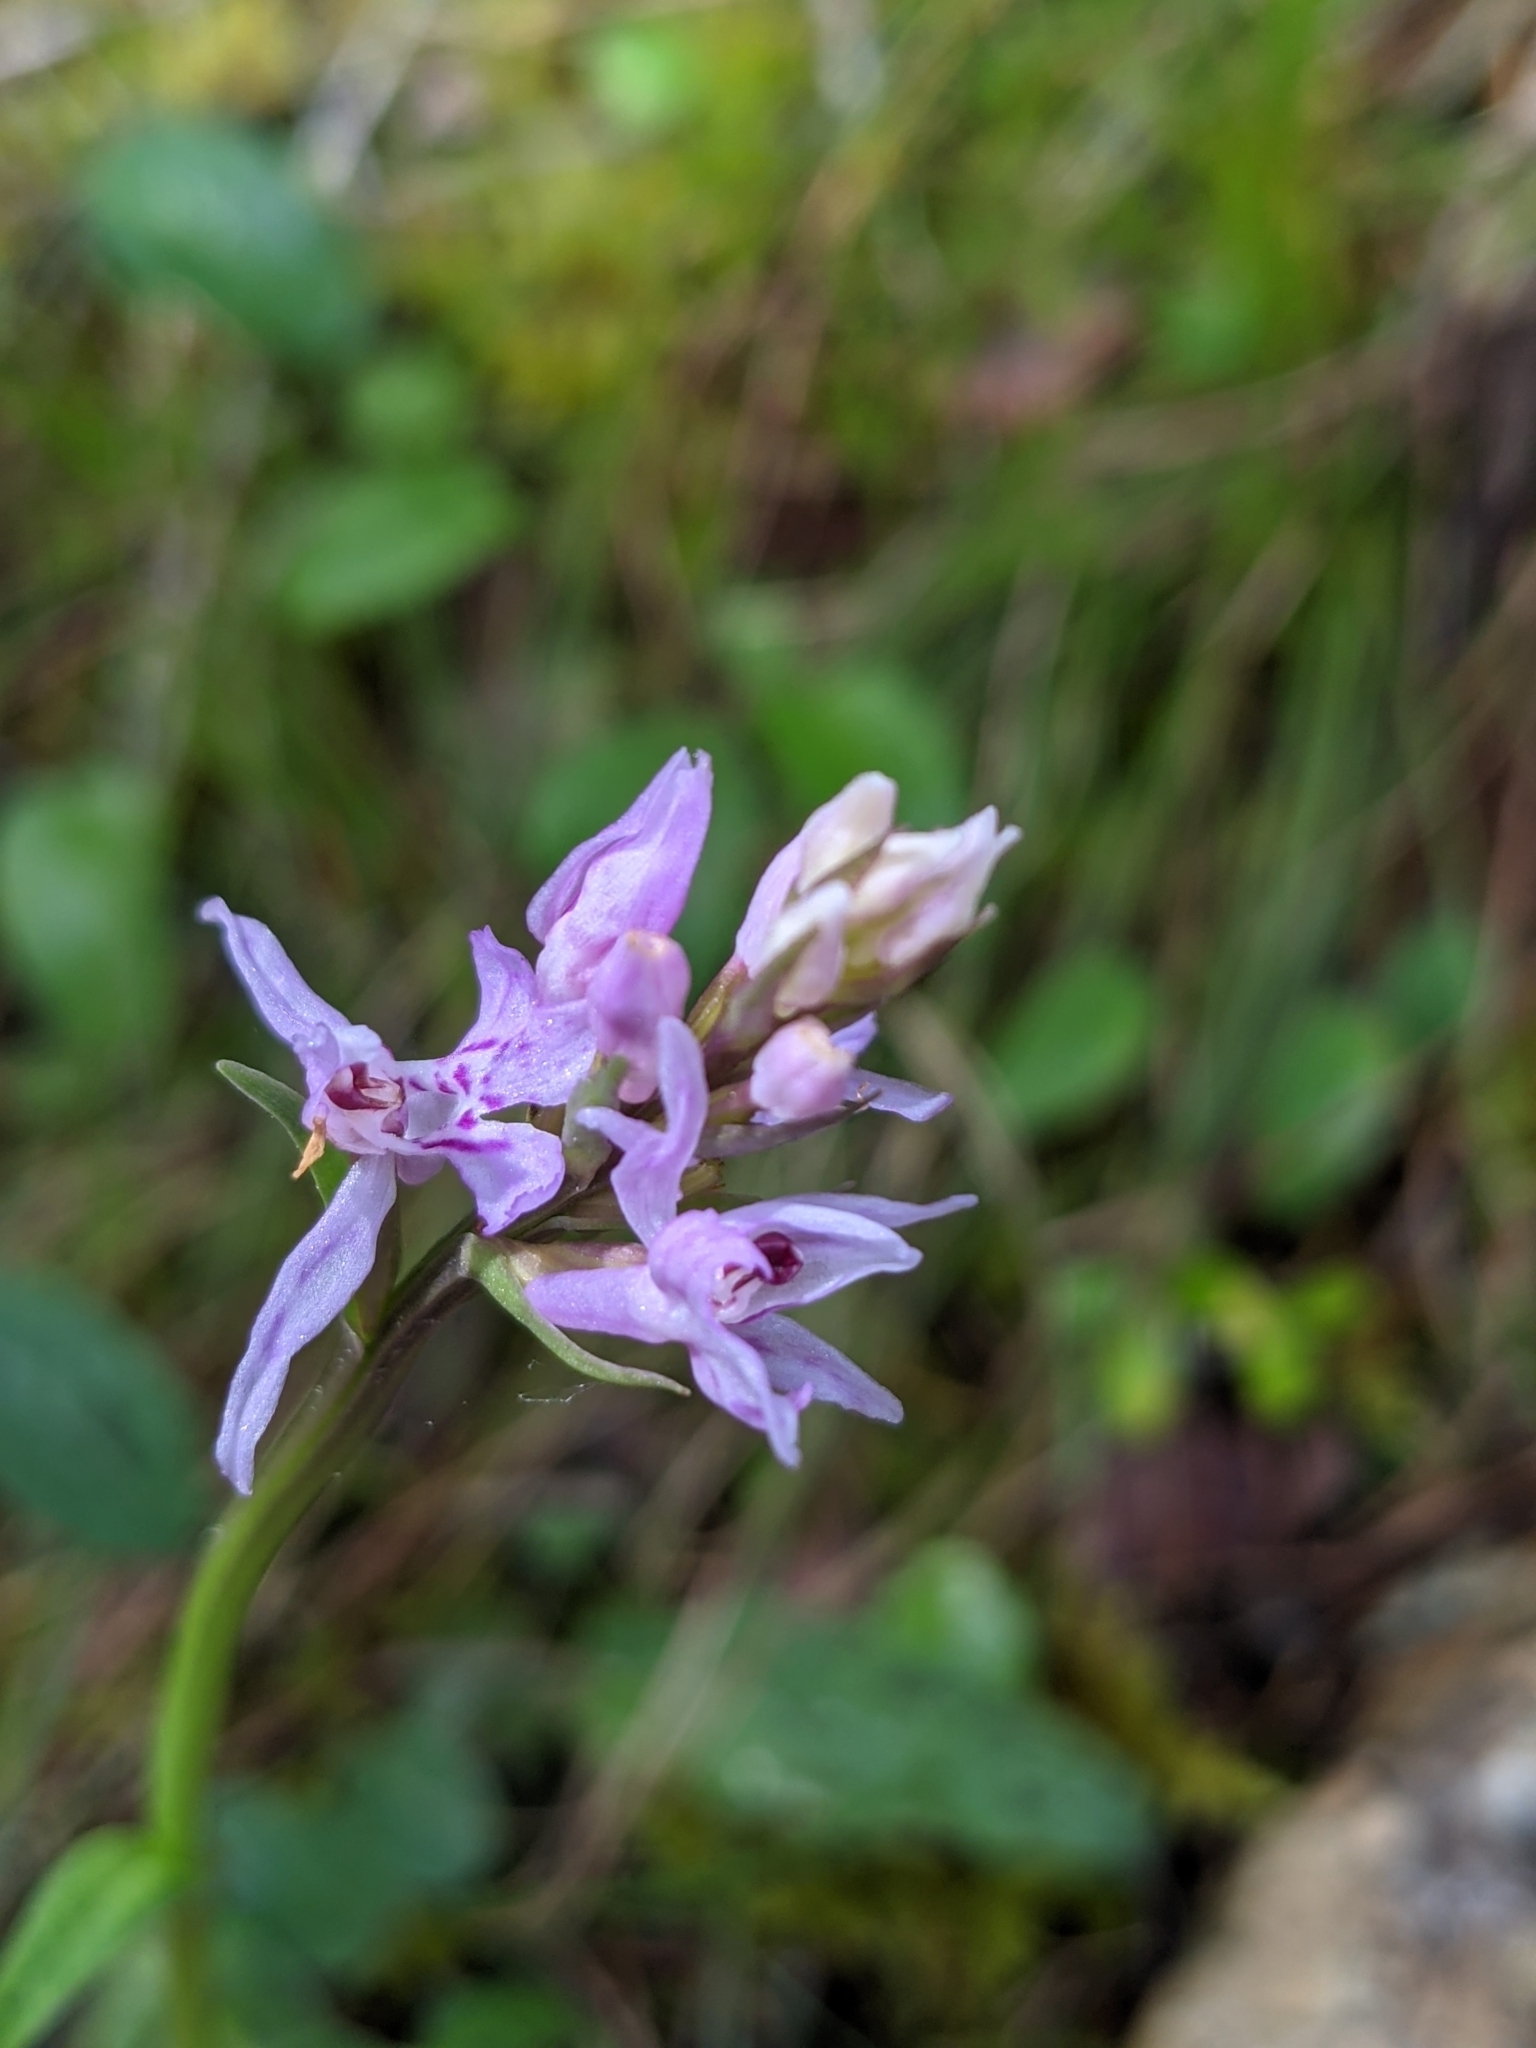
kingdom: Plantae
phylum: Tracheophyta
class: Liliopsida
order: Asparagales
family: Orchidaceae
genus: Dactylorhiza
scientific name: Dactylorhiza maculata
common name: Heath spotted-orchid
